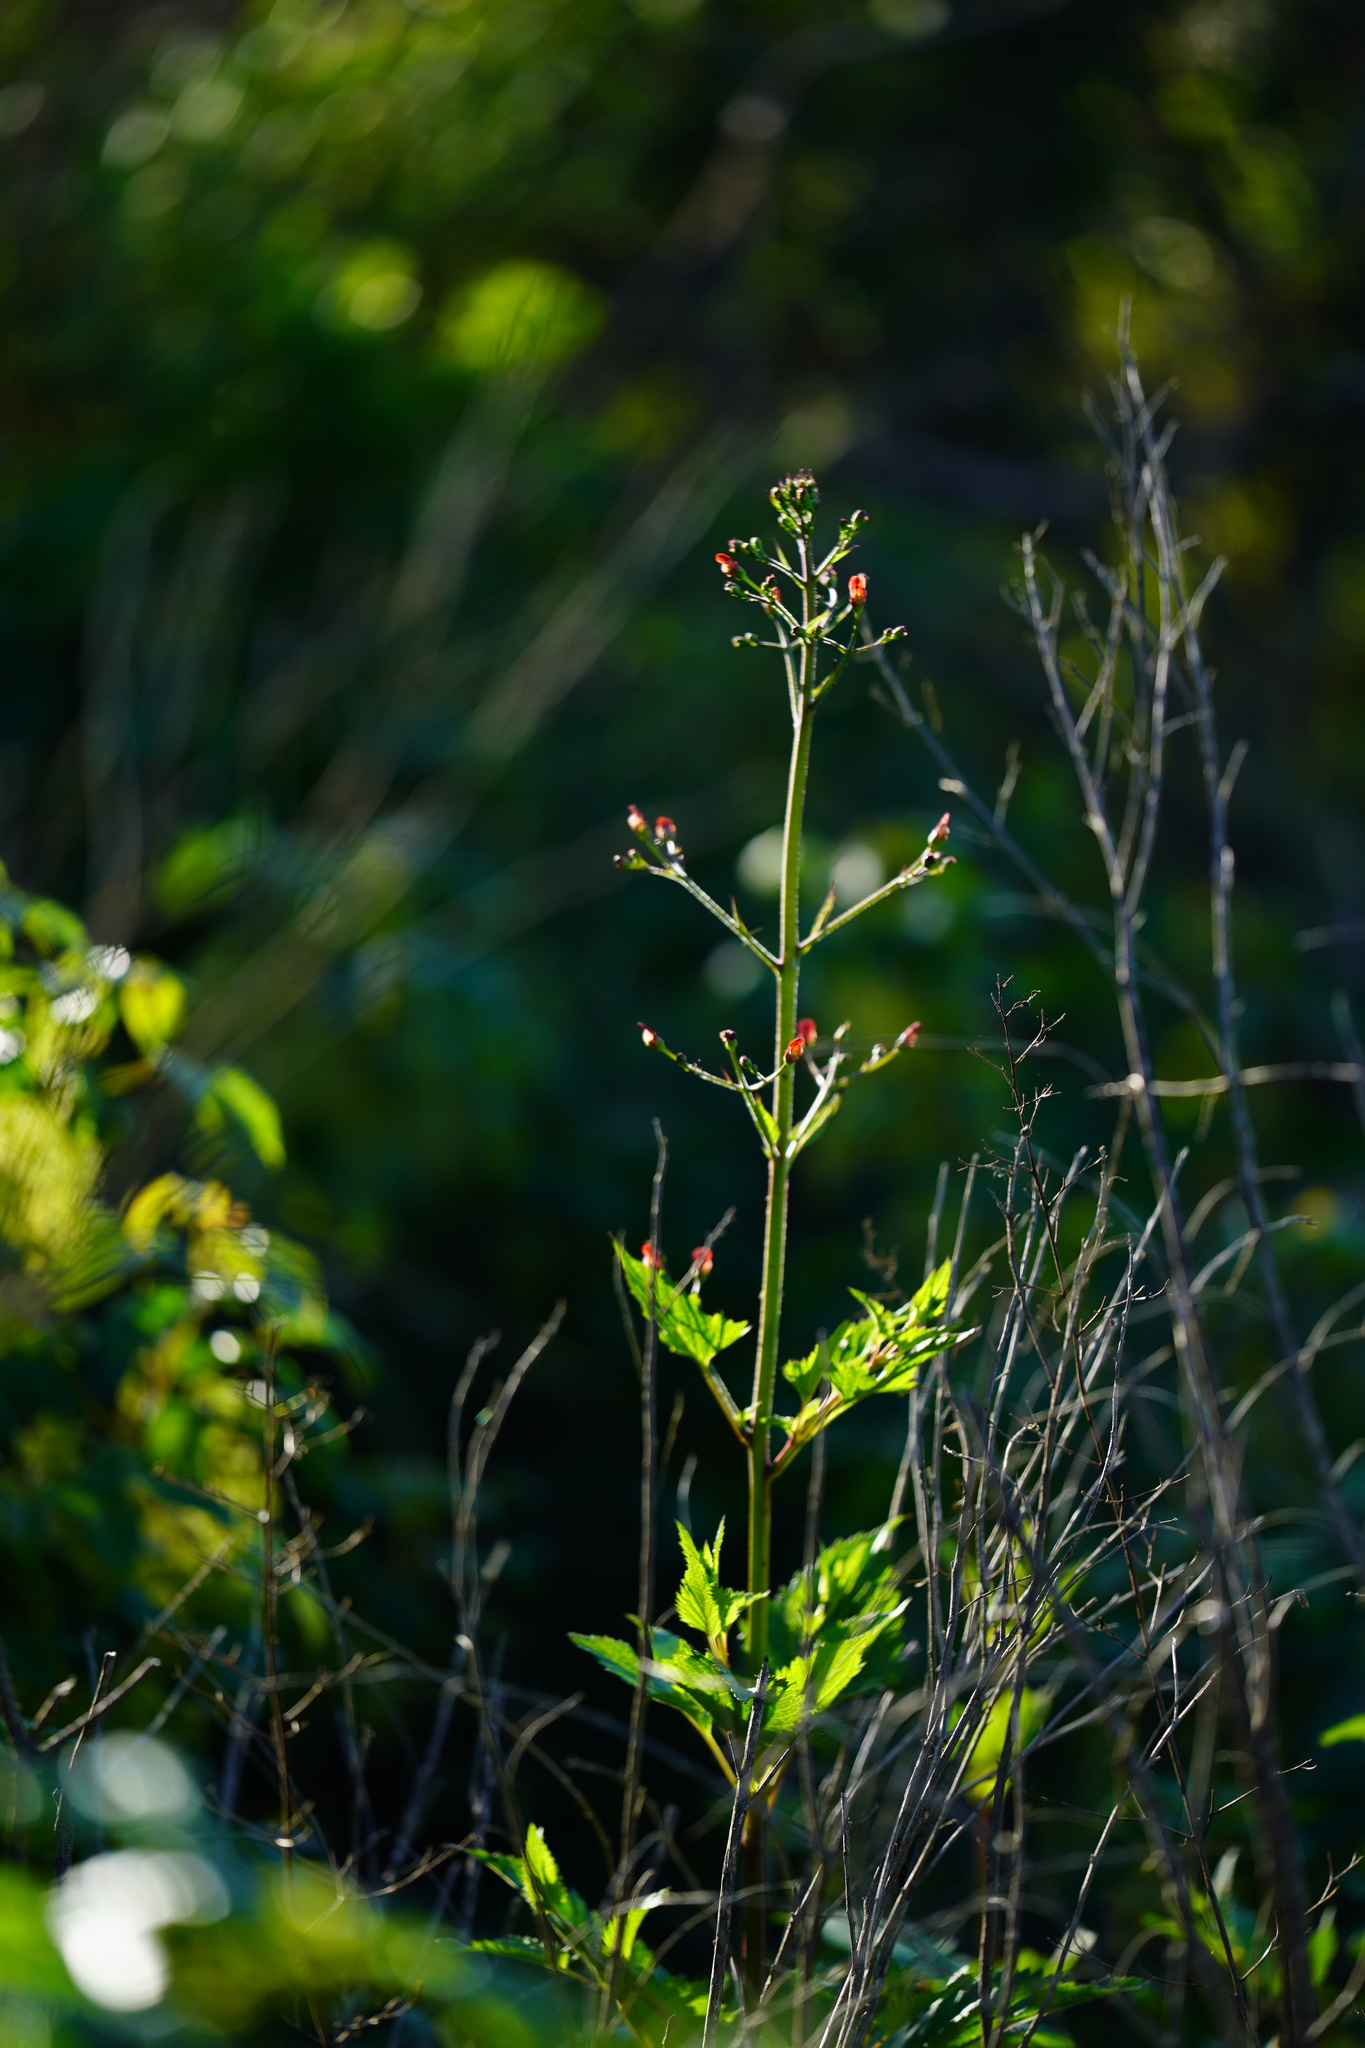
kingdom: Plantae
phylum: Tracheophyta
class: Magnoliopsida
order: Lamiales
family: Scrophulariaceae
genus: Scrophularia
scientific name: Scrophularia californica
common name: California figwort
